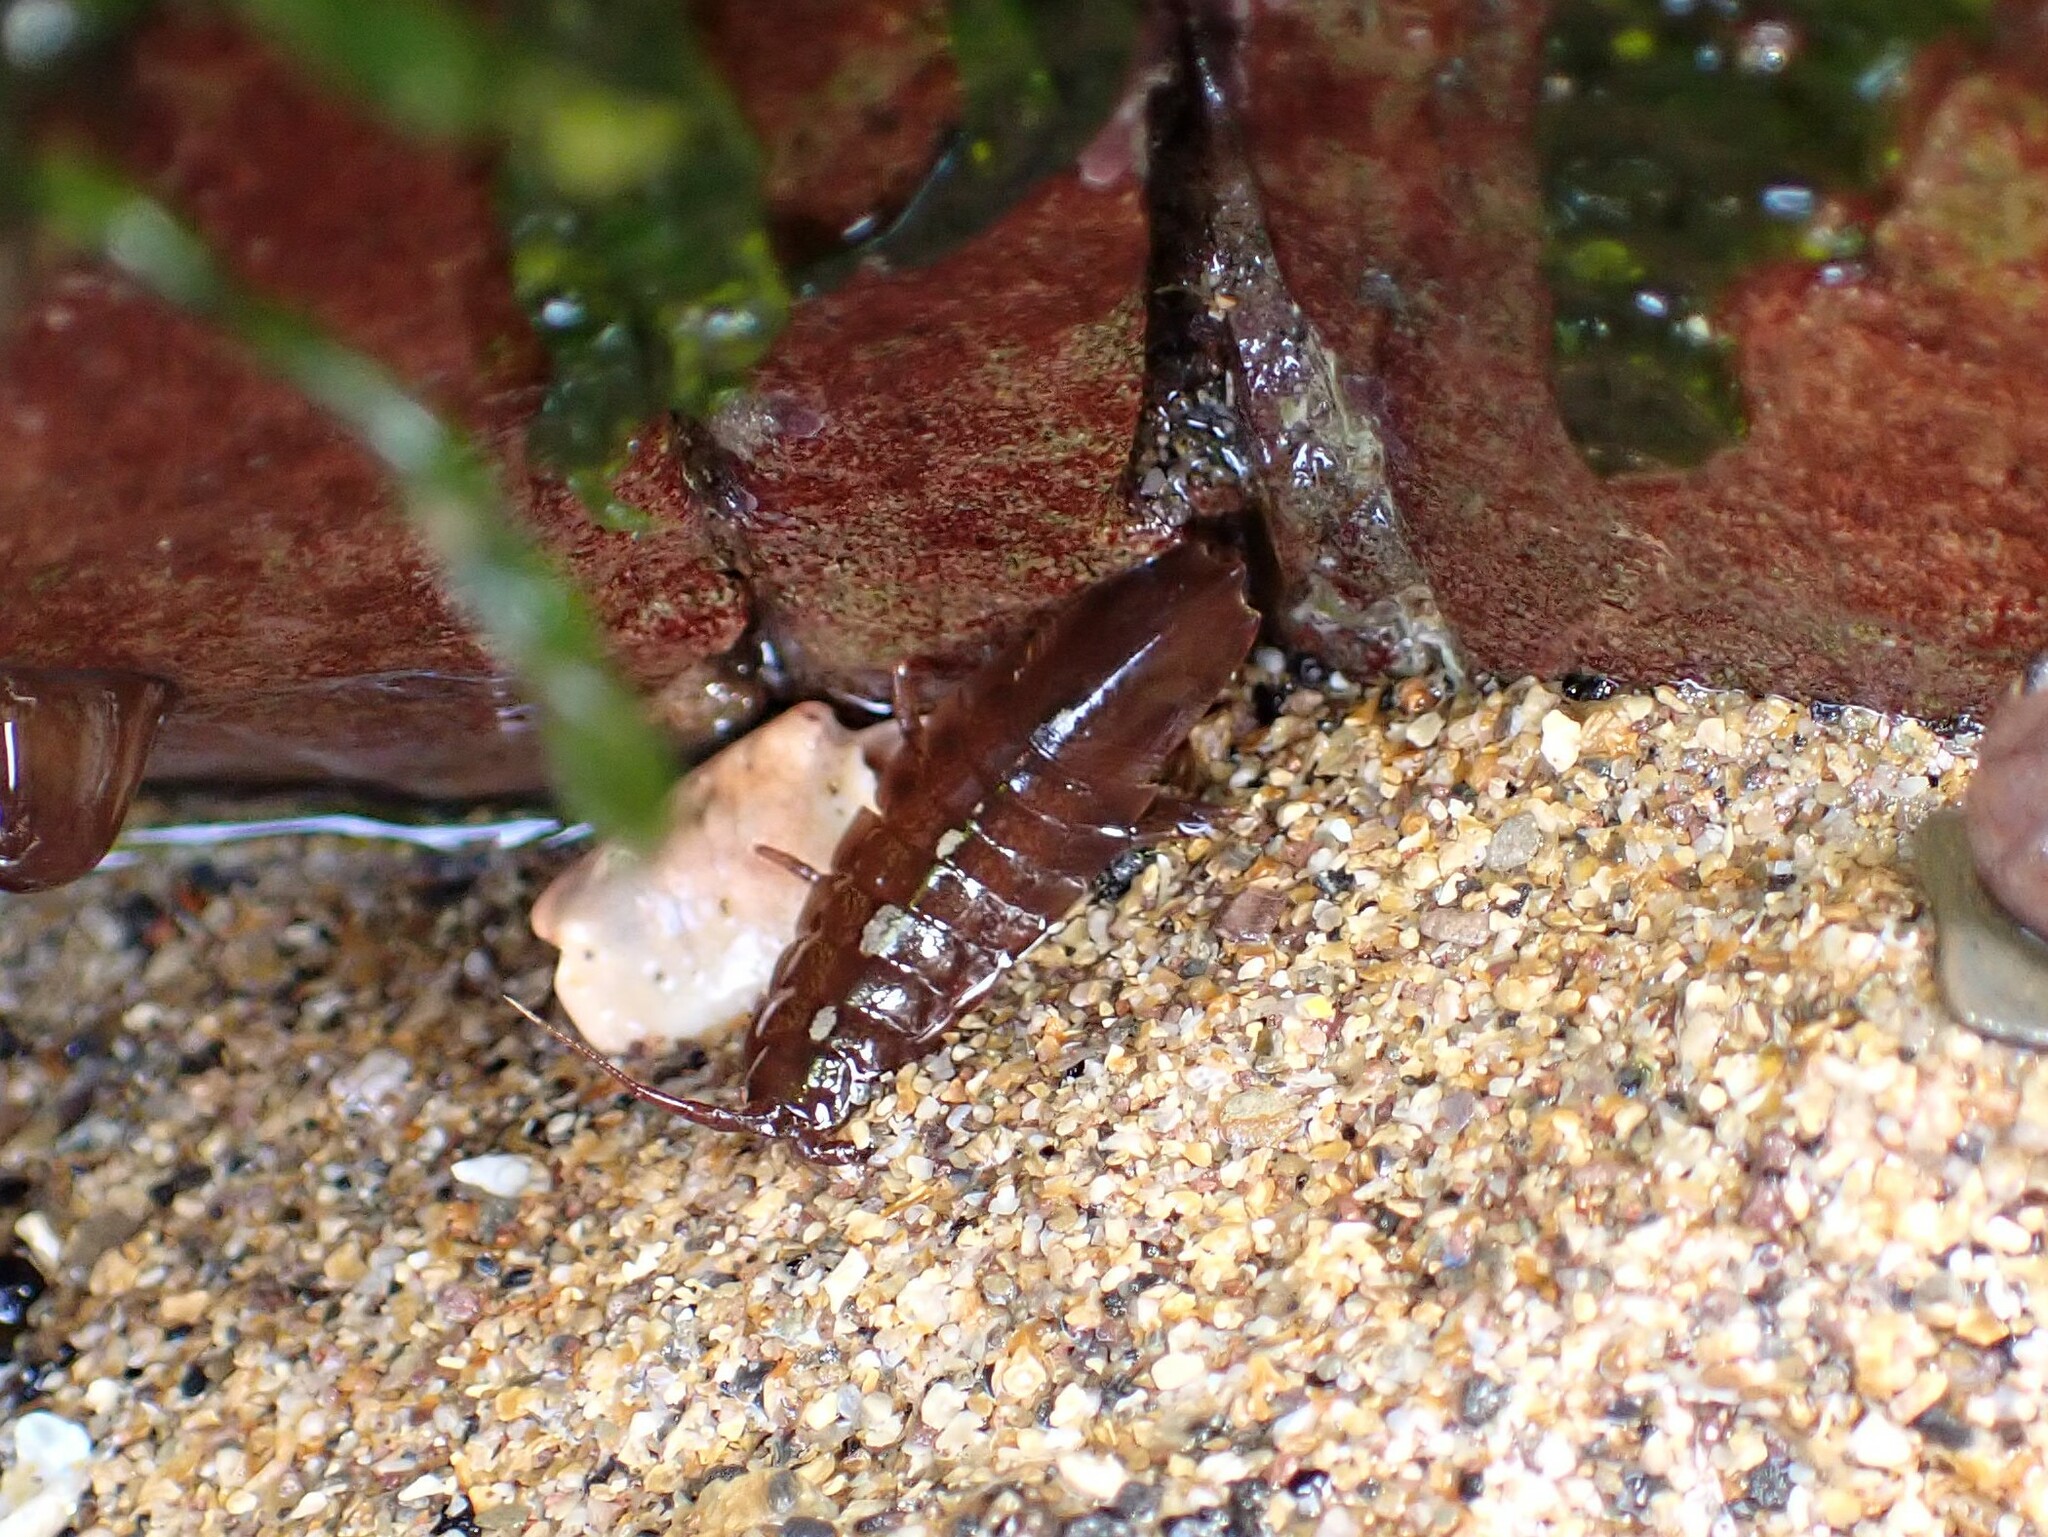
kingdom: Animalia
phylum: Arthropoda
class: Malacostraca
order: Isopoda
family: Idoteidae
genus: Idotea
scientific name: Idotea balthica
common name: Baltic isopod
